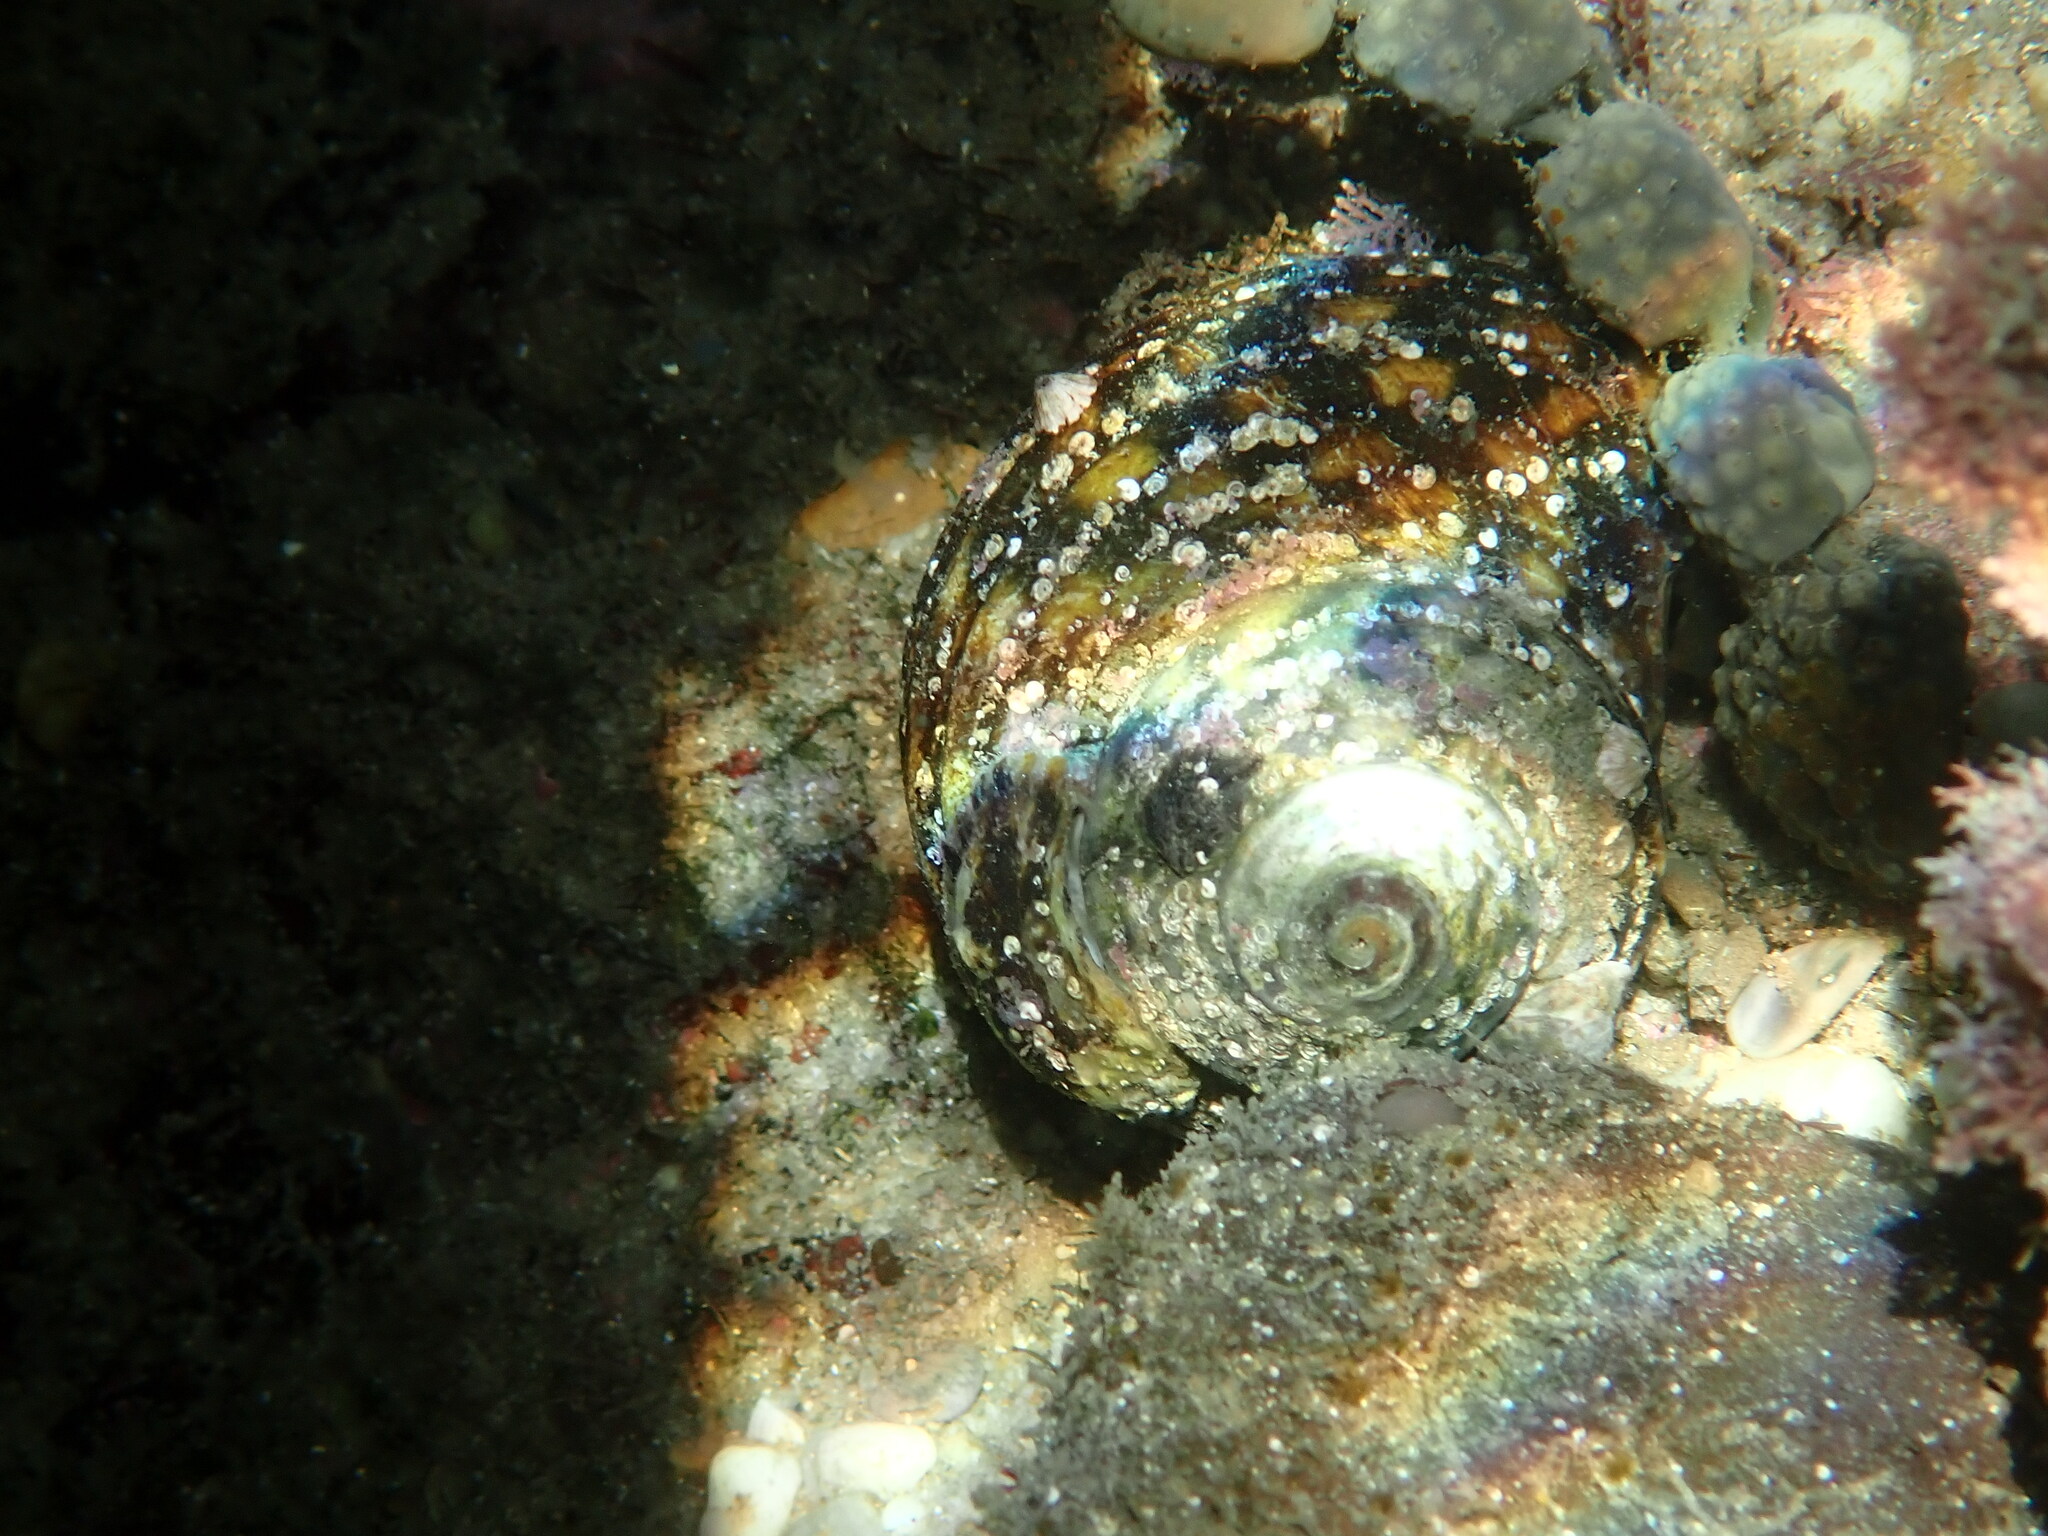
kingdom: Animalia
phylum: Mollusca
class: Gastropoda
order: Trochida
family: Turbinidae
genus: Lunella
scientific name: Lunella undulata
